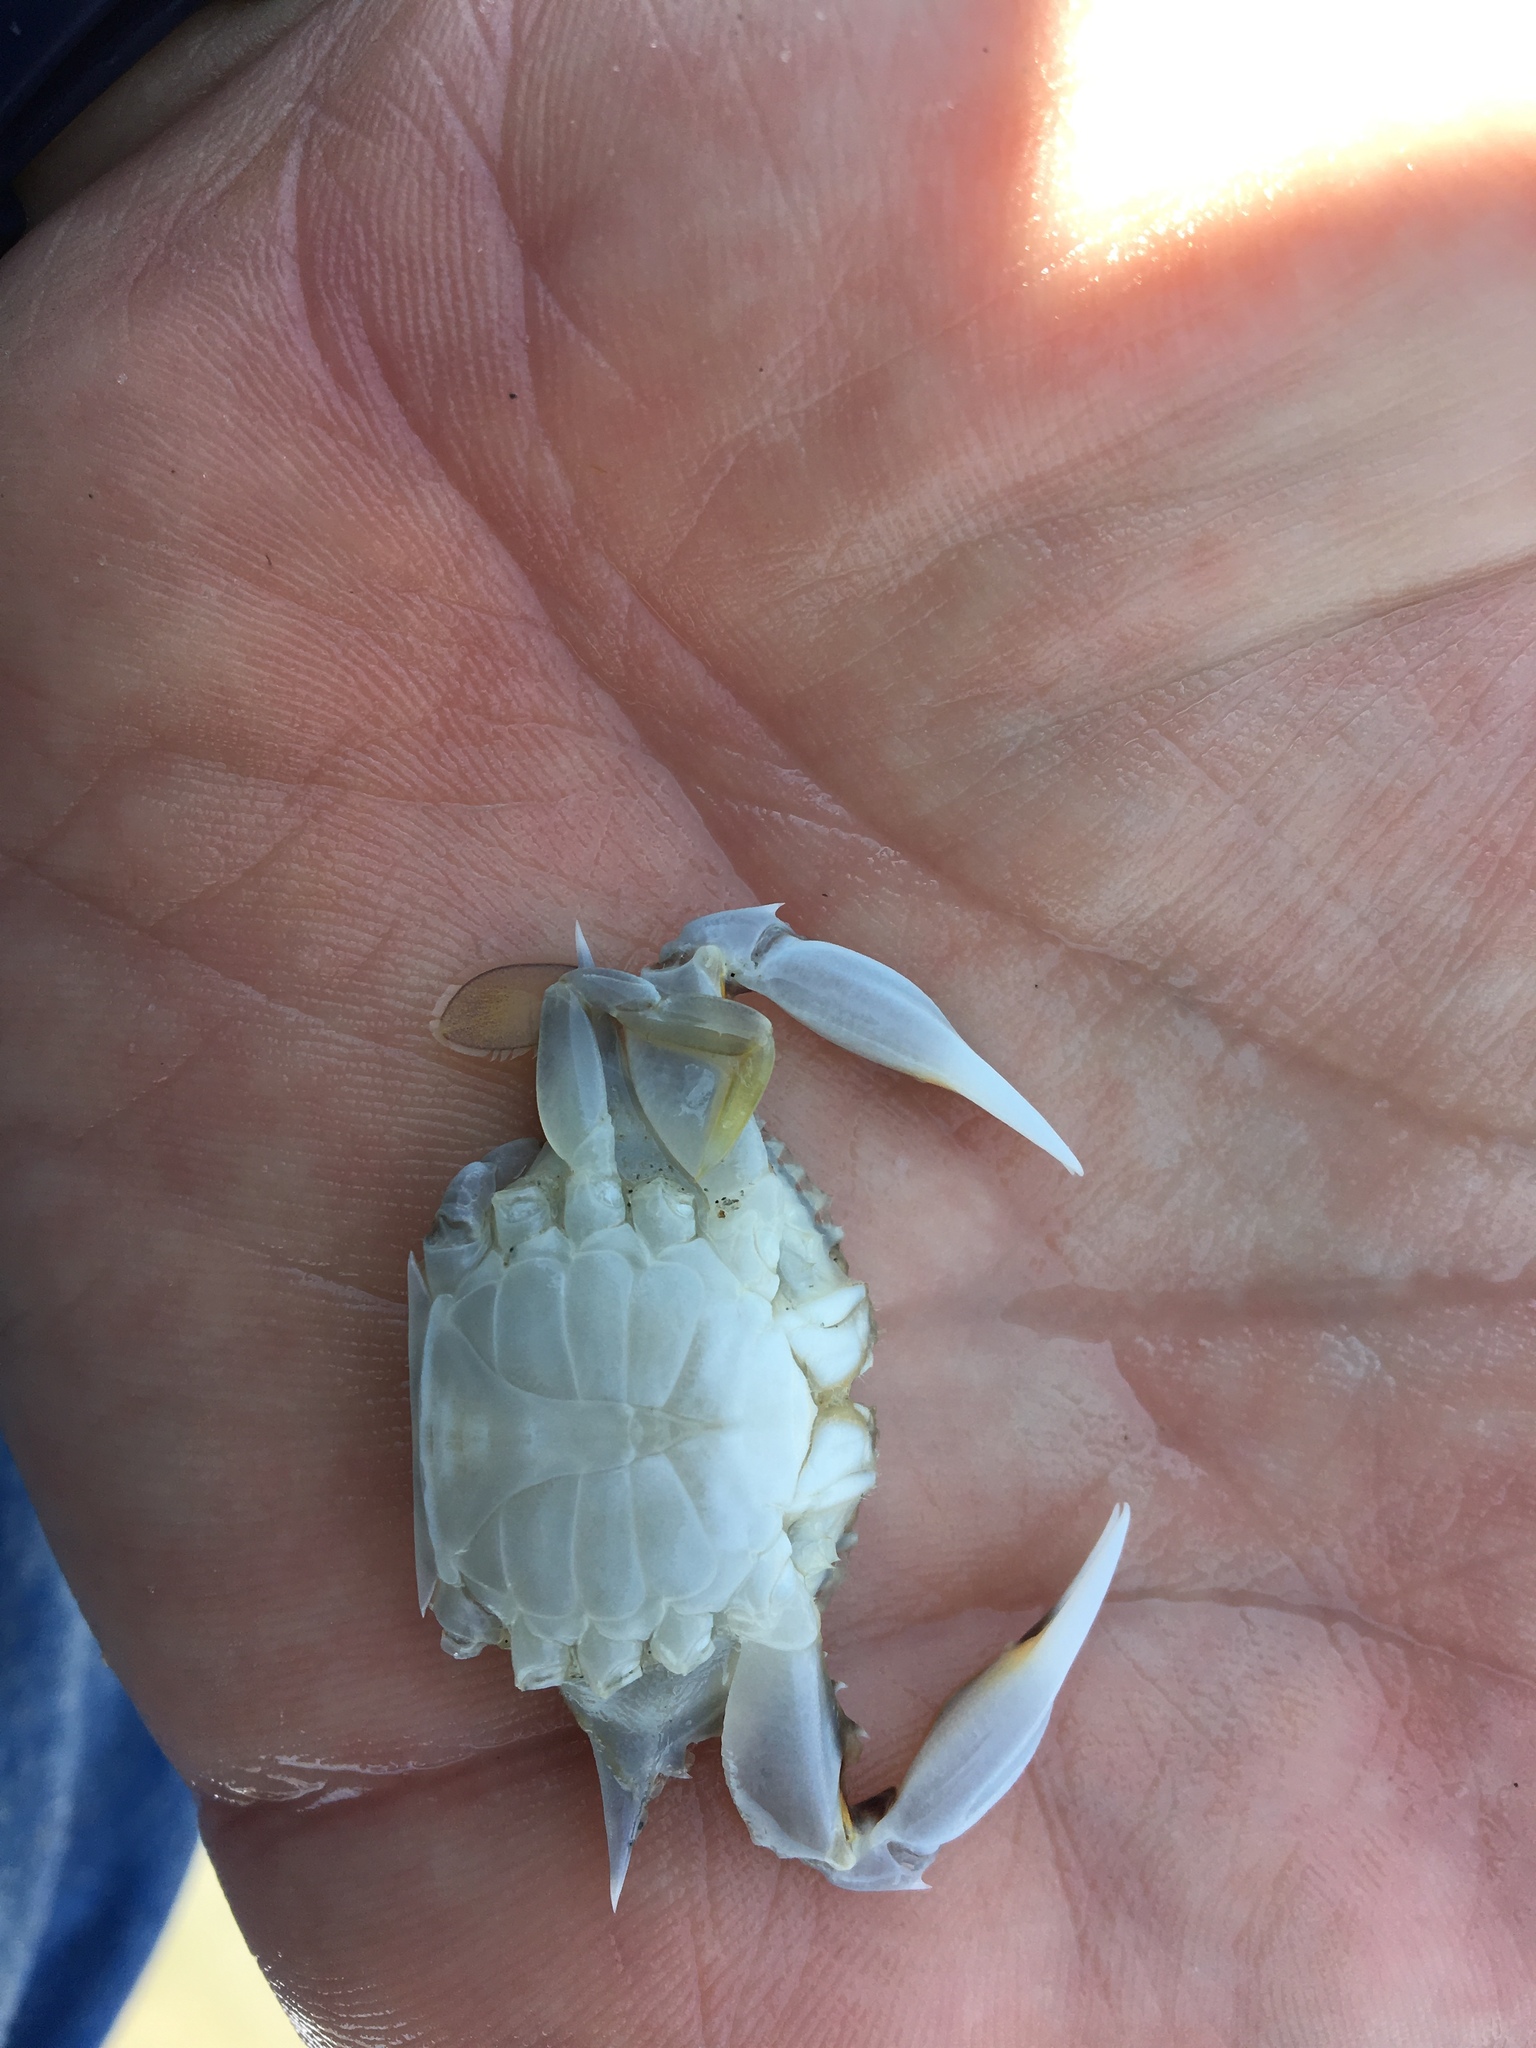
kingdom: Animalia
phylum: Arthropoda
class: Malacostraca
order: Decapoda
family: Portunidae
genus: Arenaeus
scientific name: Arenaeus cribrarius
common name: Speckled crab
